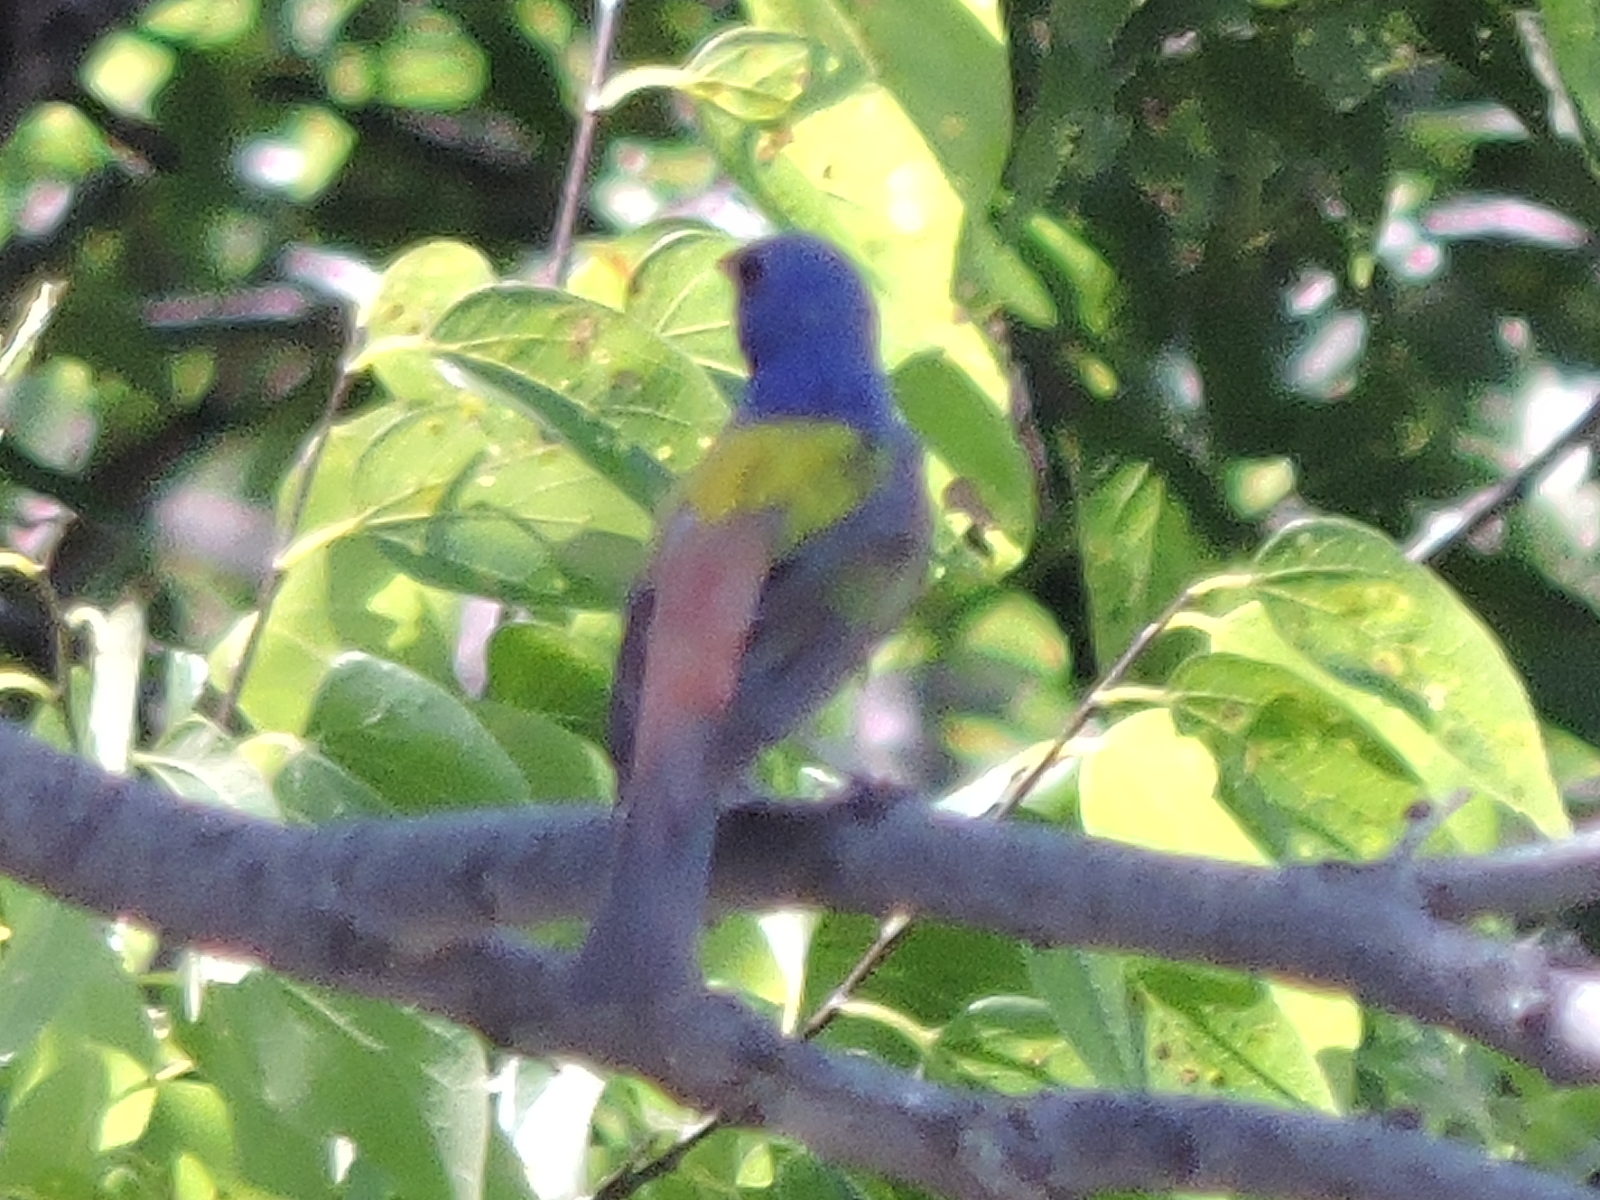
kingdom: Animalia
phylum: Chordata
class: Aves
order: Passeriformes
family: Cardinalidae
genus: Passerina
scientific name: Passerina ciris
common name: Painted bunting
